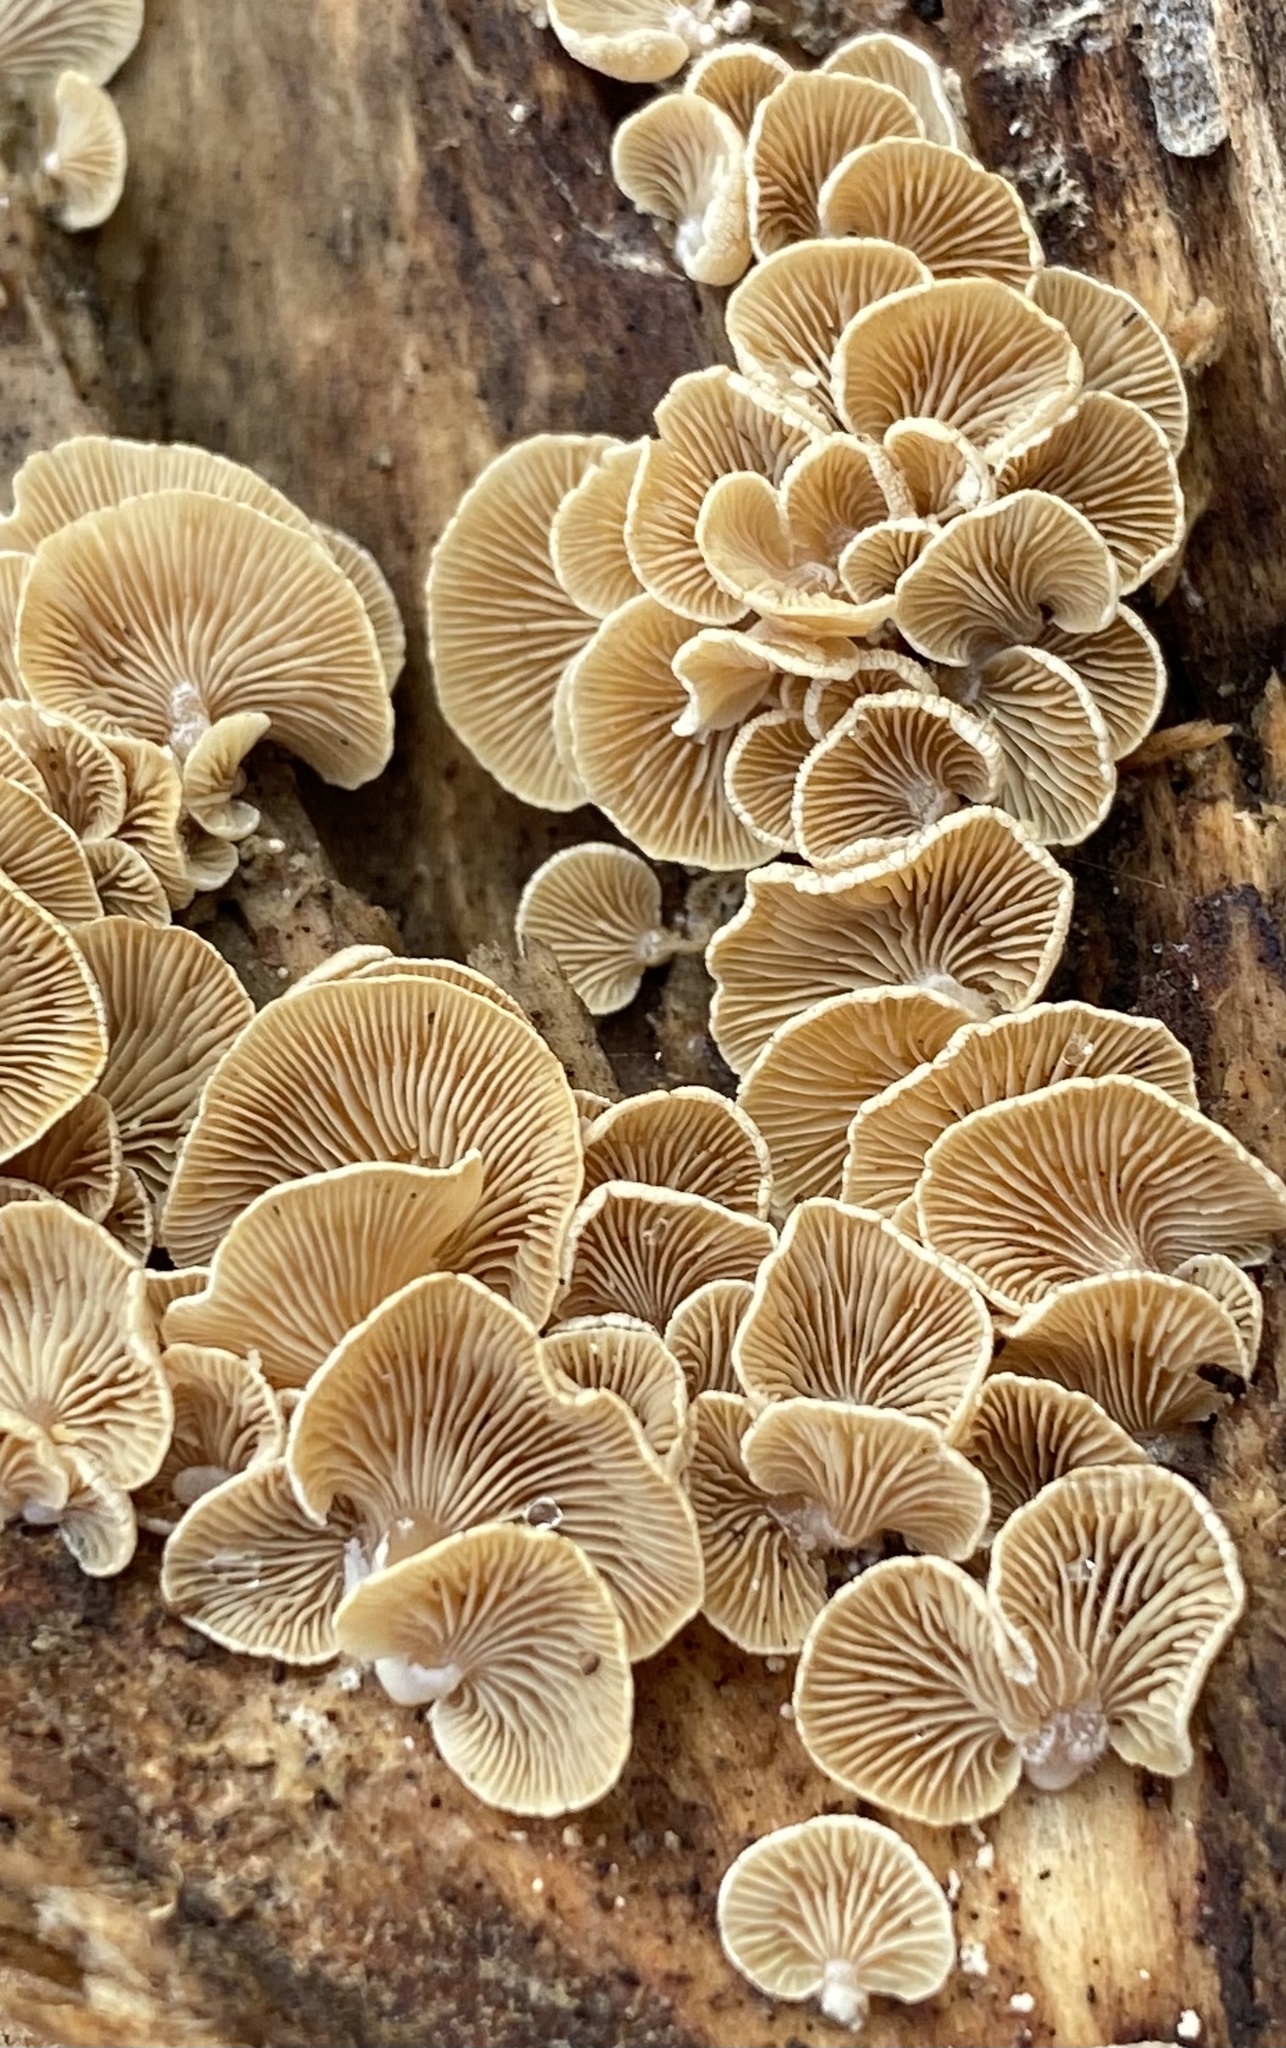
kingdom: Fungi
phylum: Basidiomycota
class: Agaricomycetes
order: Agaricales
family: Mycenaceae
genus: Panellus
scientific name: Panellus stipticus
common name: Bitter oysterling
